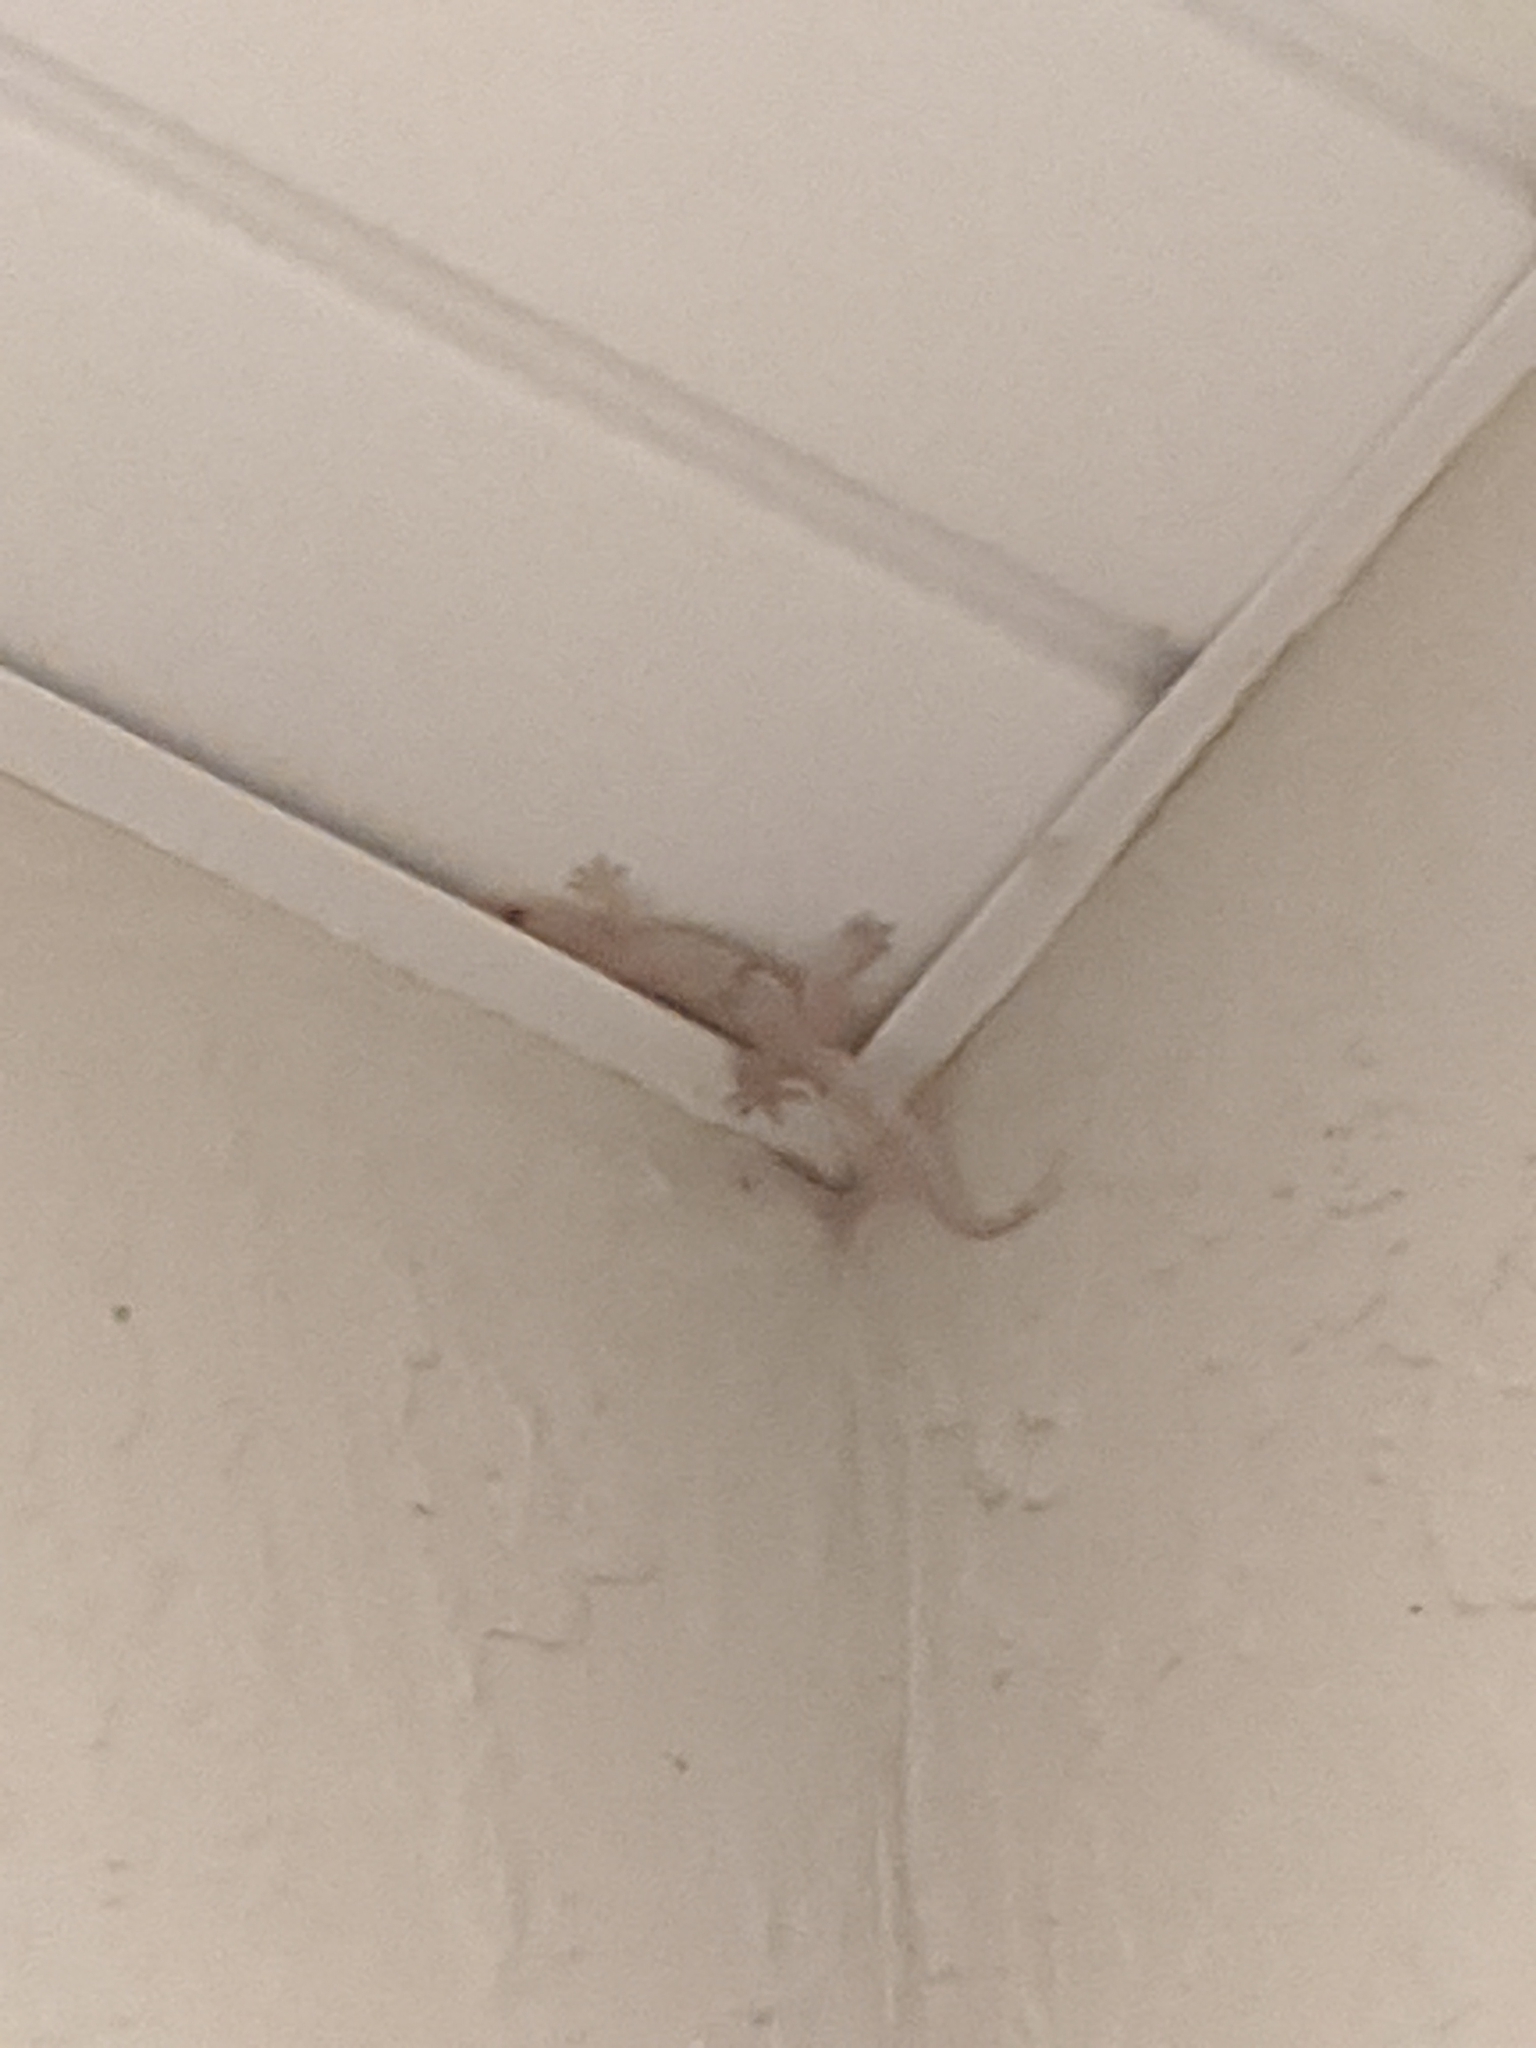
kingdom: Animalia
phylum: Chordata
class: Squamata
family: Gekkonidae
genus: Hemidactylus
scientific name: Hemidactylus mabouia
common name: House gecko
